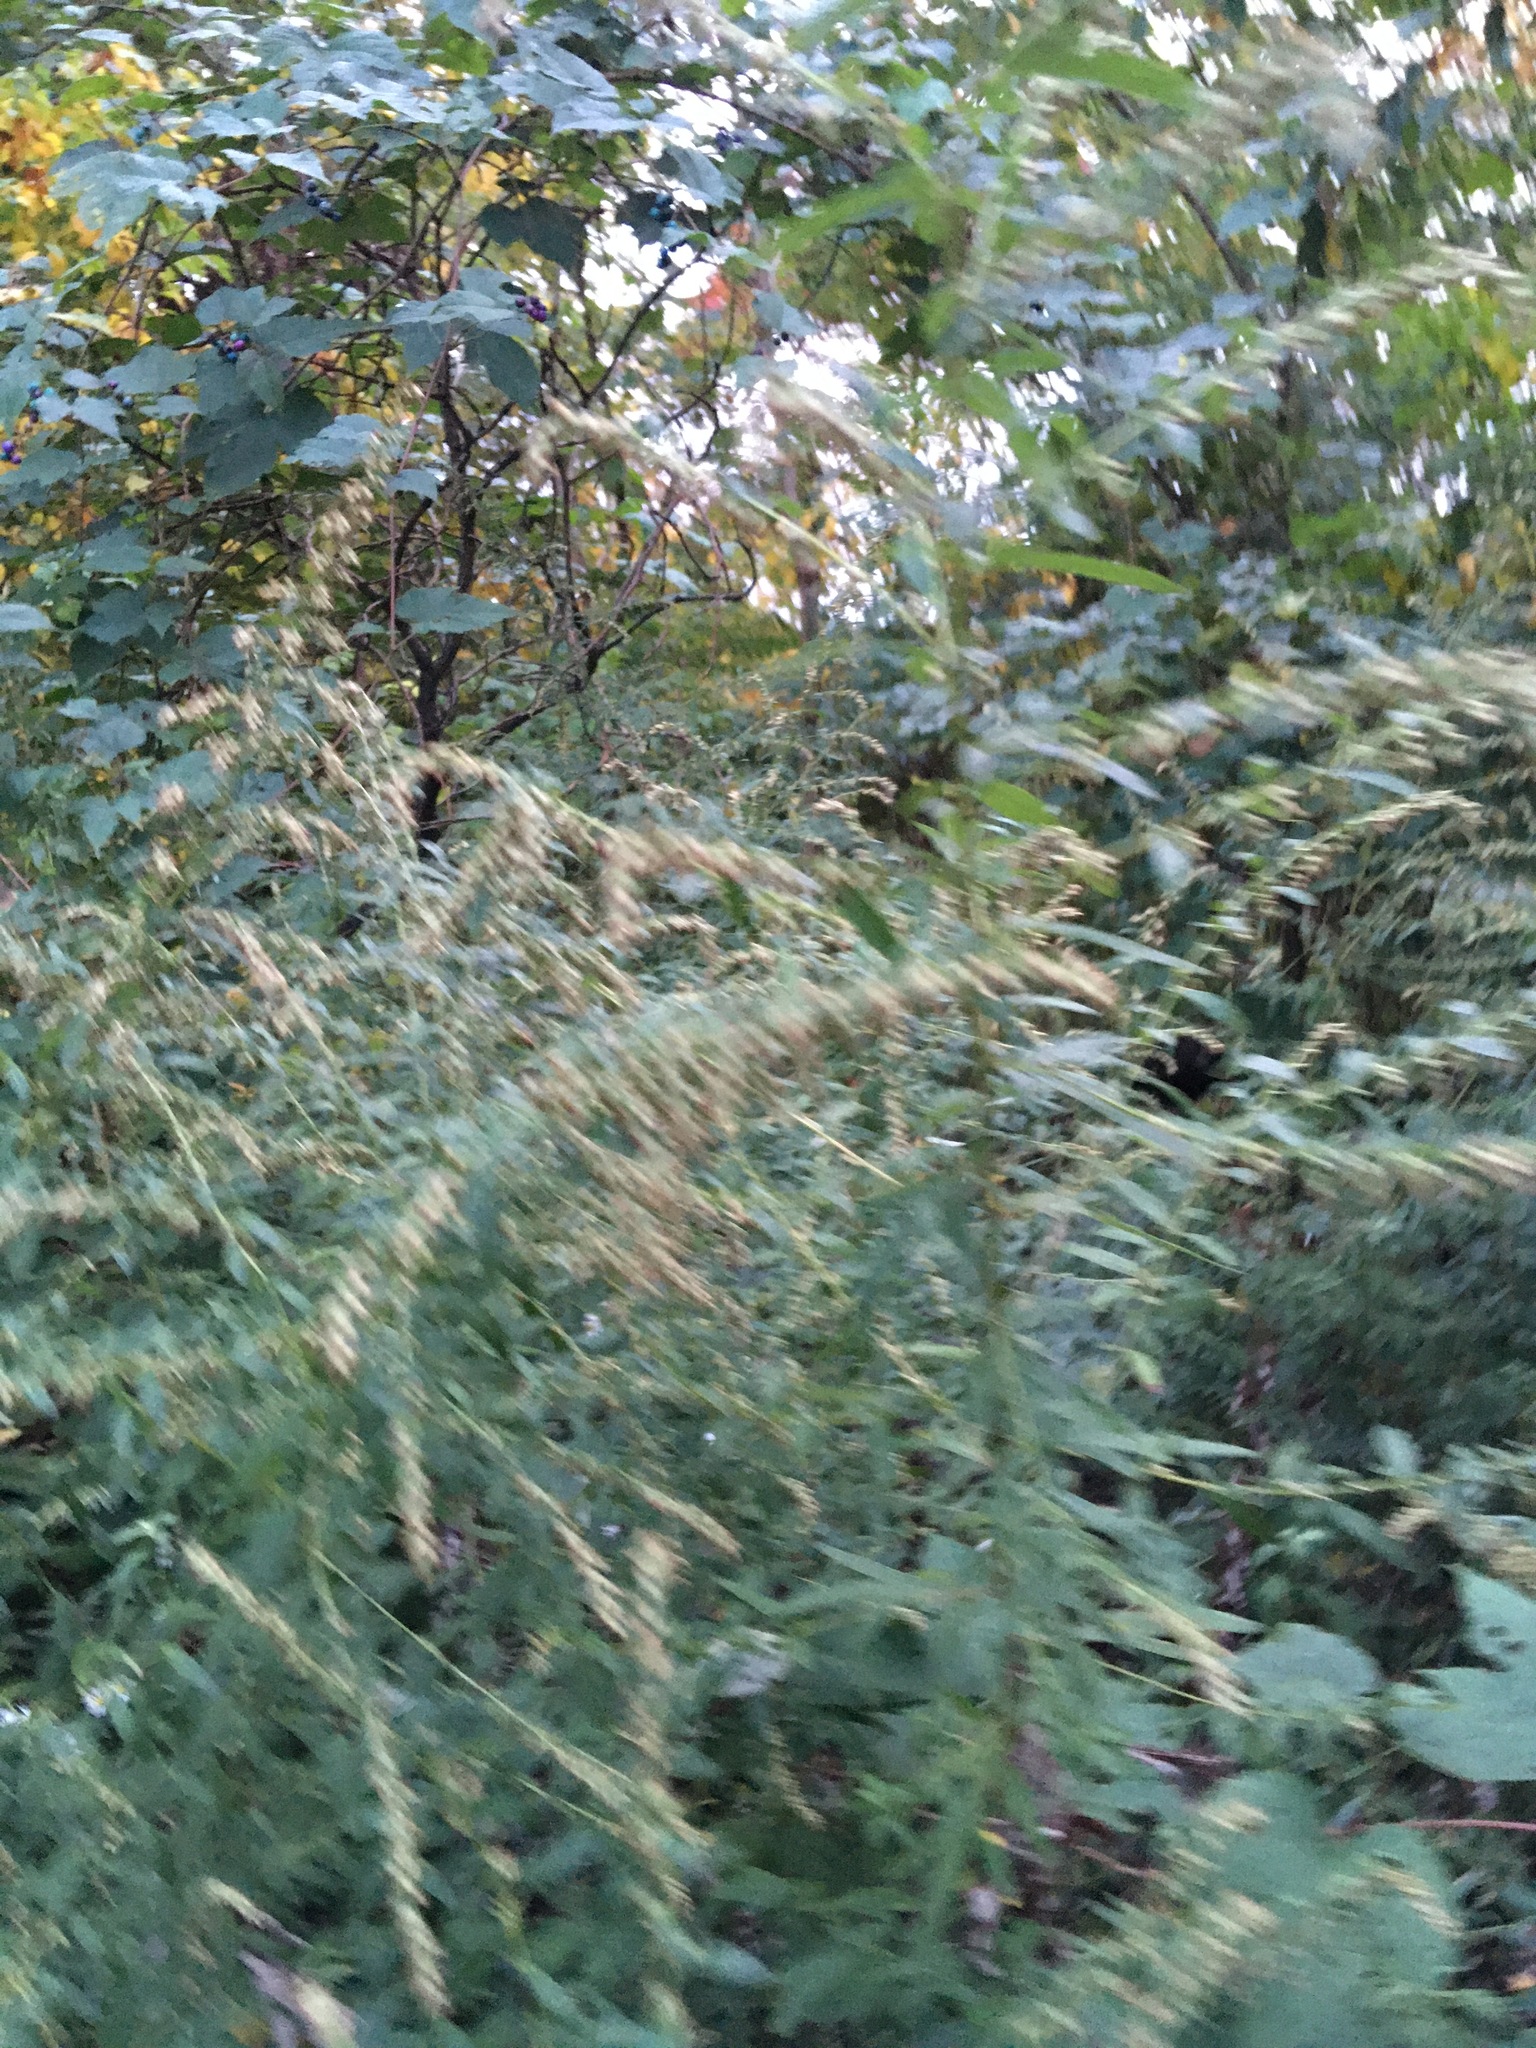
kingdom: Plantae
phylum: Tracheophyta
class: Magnoliopsida
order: Asterales
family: Asteraceae
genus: Artemisia
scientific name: Artemisia vulgaris
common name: Mugwort
